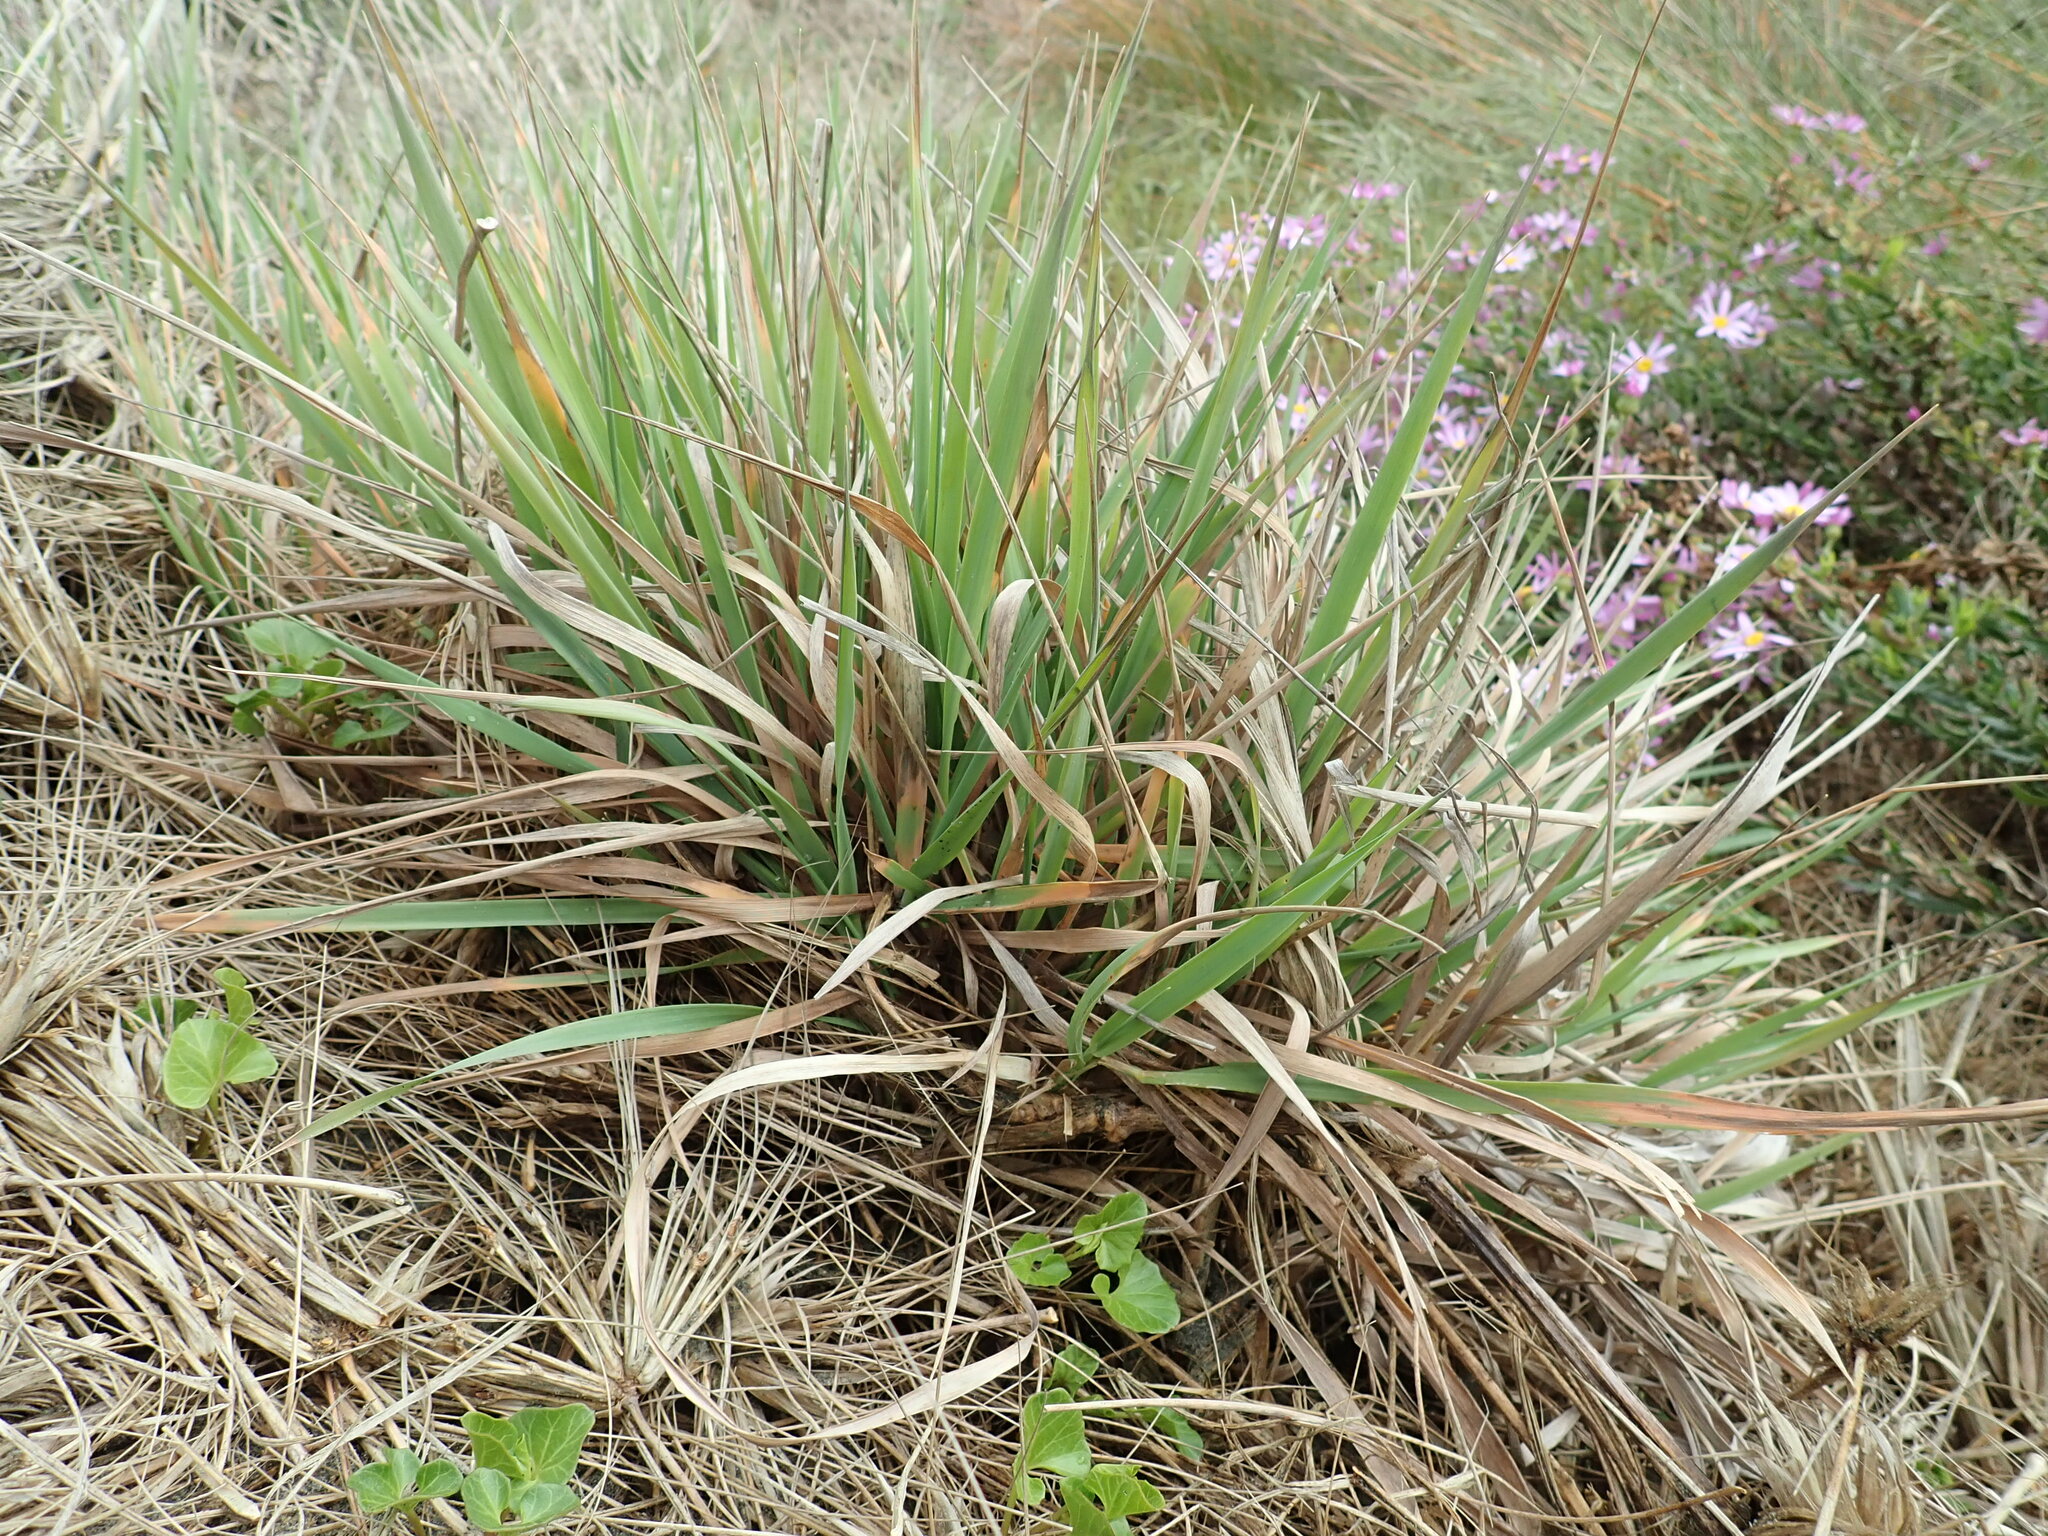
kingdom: Plantae
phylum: Tracheophyta
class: Liliopsida
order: Poales
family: Poaceae
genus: Lachnagrostis
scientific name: Lachnagrostis billardierei
